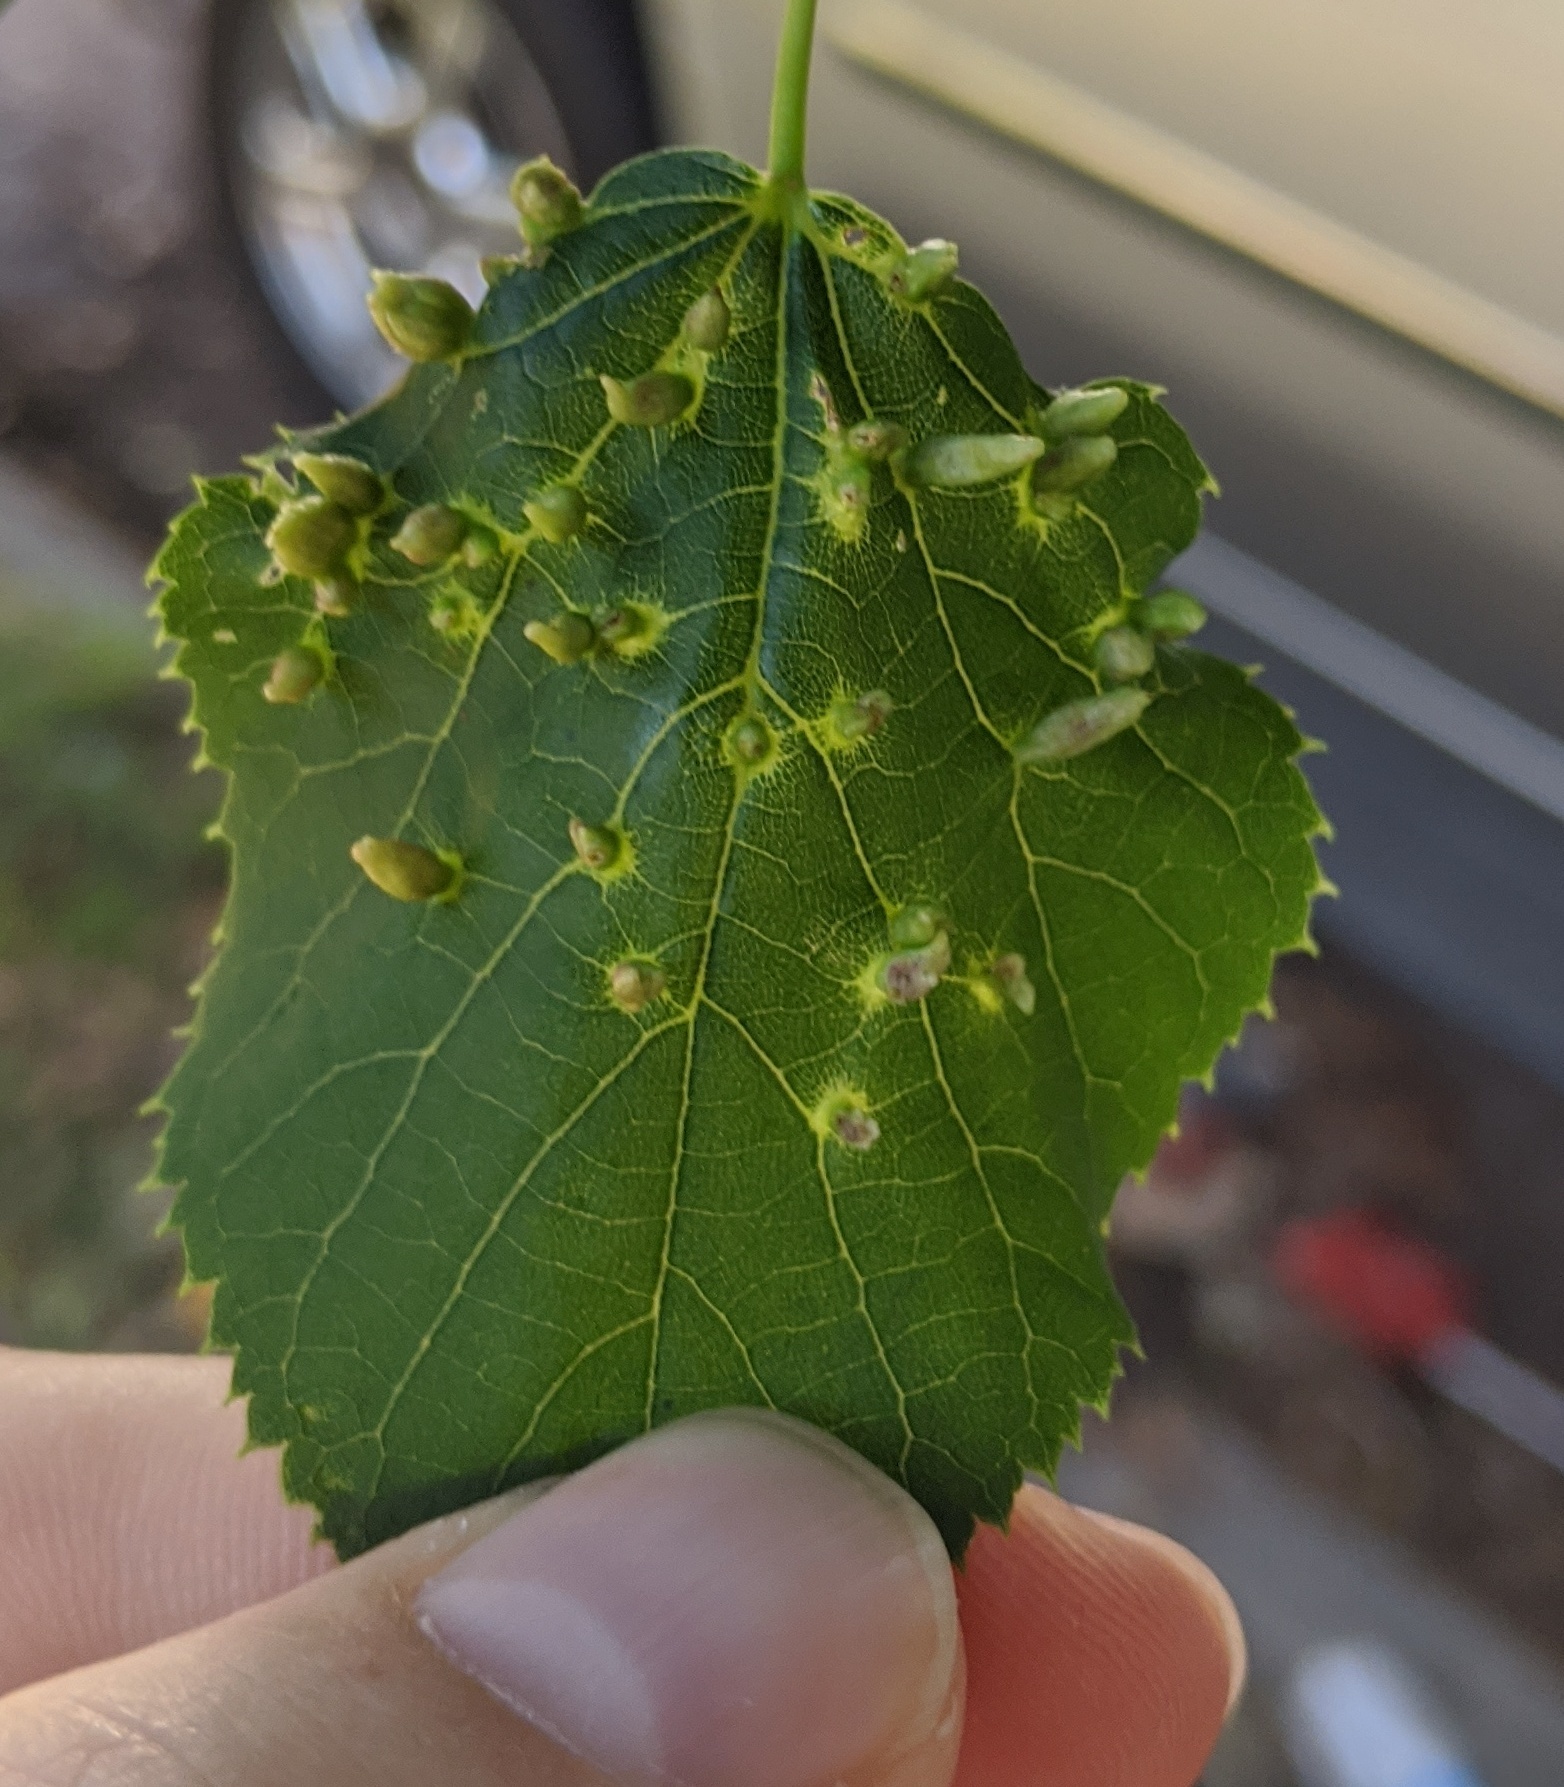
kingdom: Animalia
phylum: Arthropoda
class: Arachnida
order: Trombidiformes
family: Eriophyidae
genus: Eriophyes
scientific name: Eriophyes tiliae
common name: Red nail gall mite
